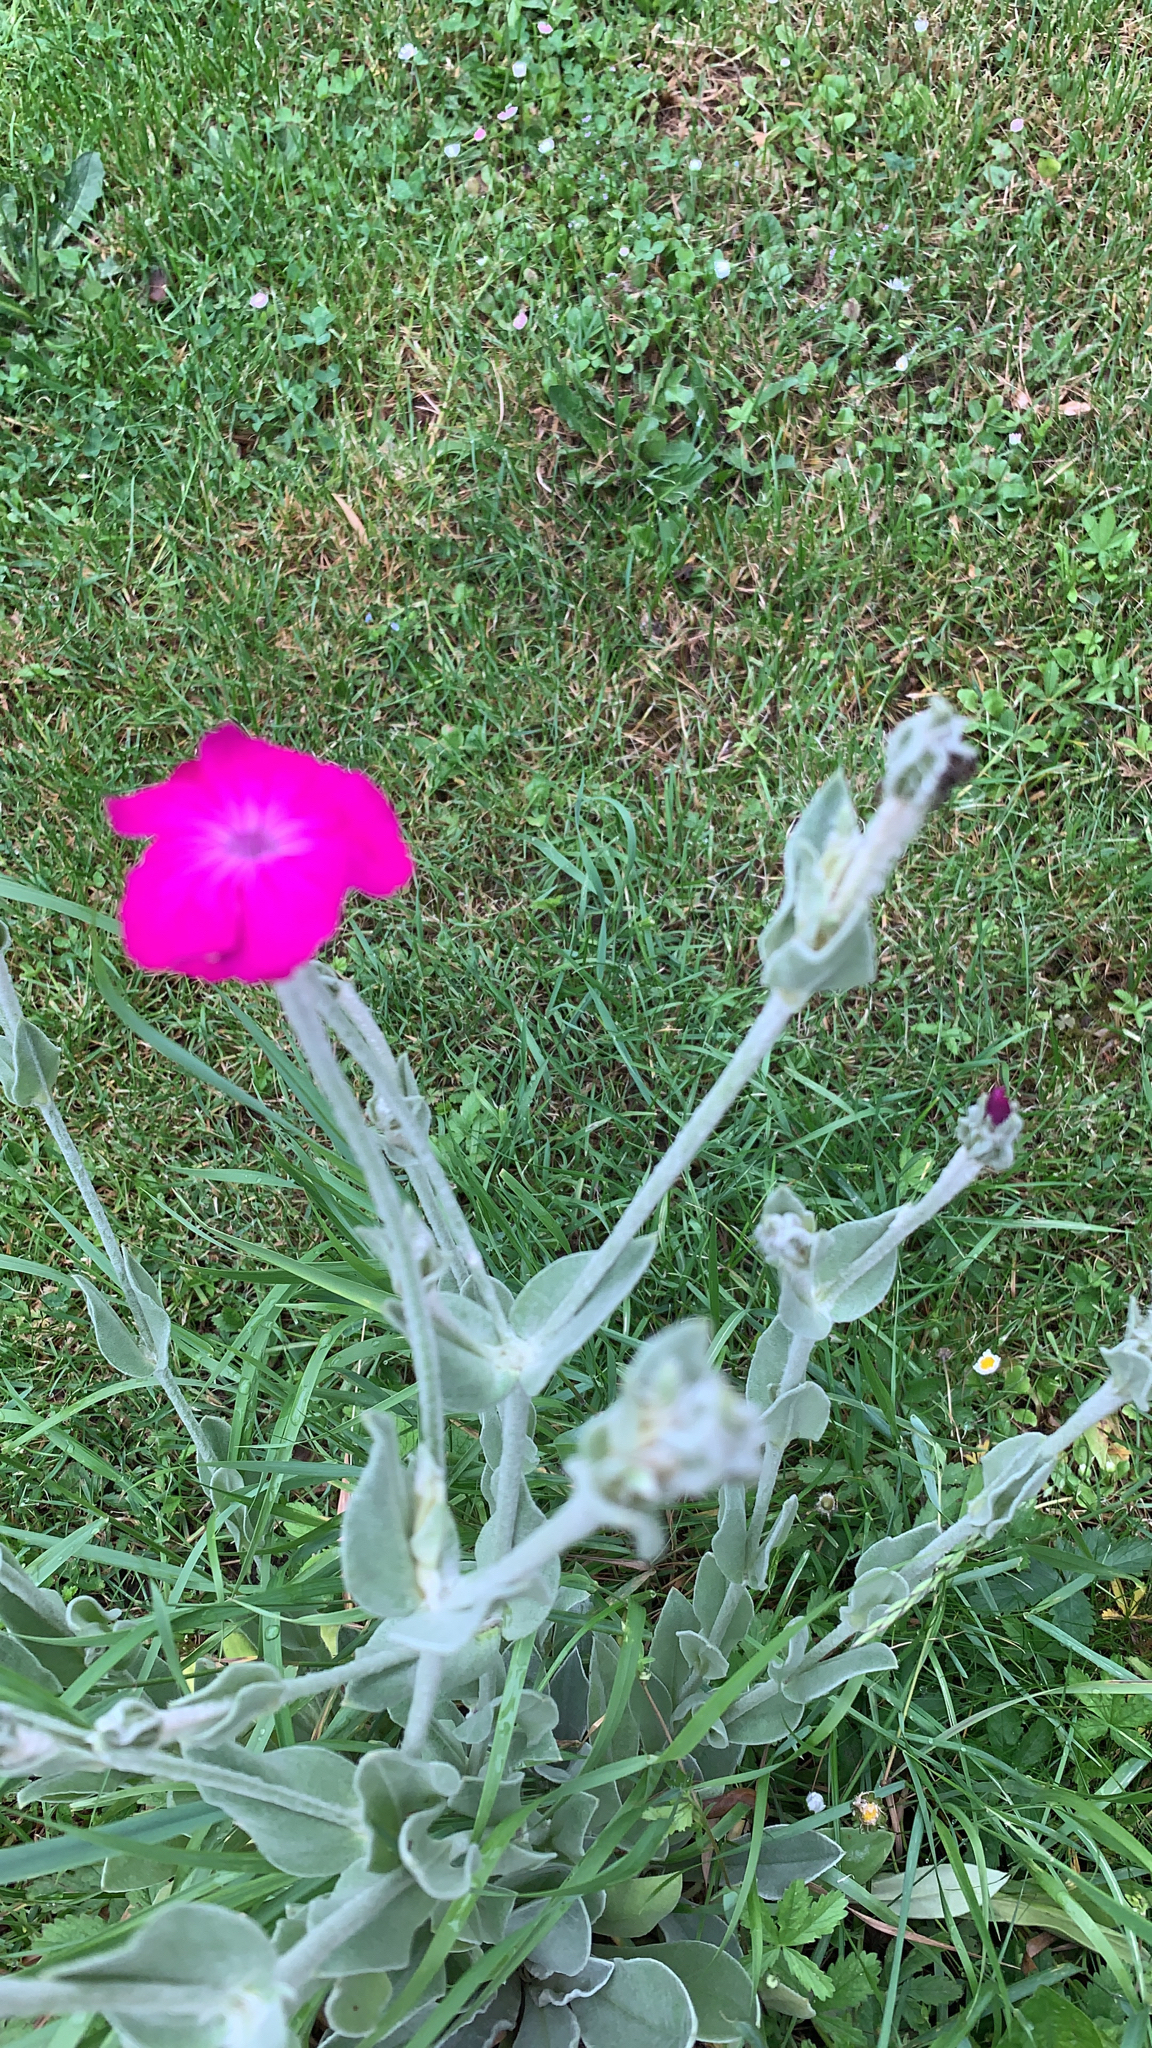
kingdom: Plantae
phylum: Tracheophyta
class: Magnoliopsida
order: Caryophyllales
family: Caryophyllaceae
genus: Silene
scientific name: Silene coronaria
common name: Rose campion
